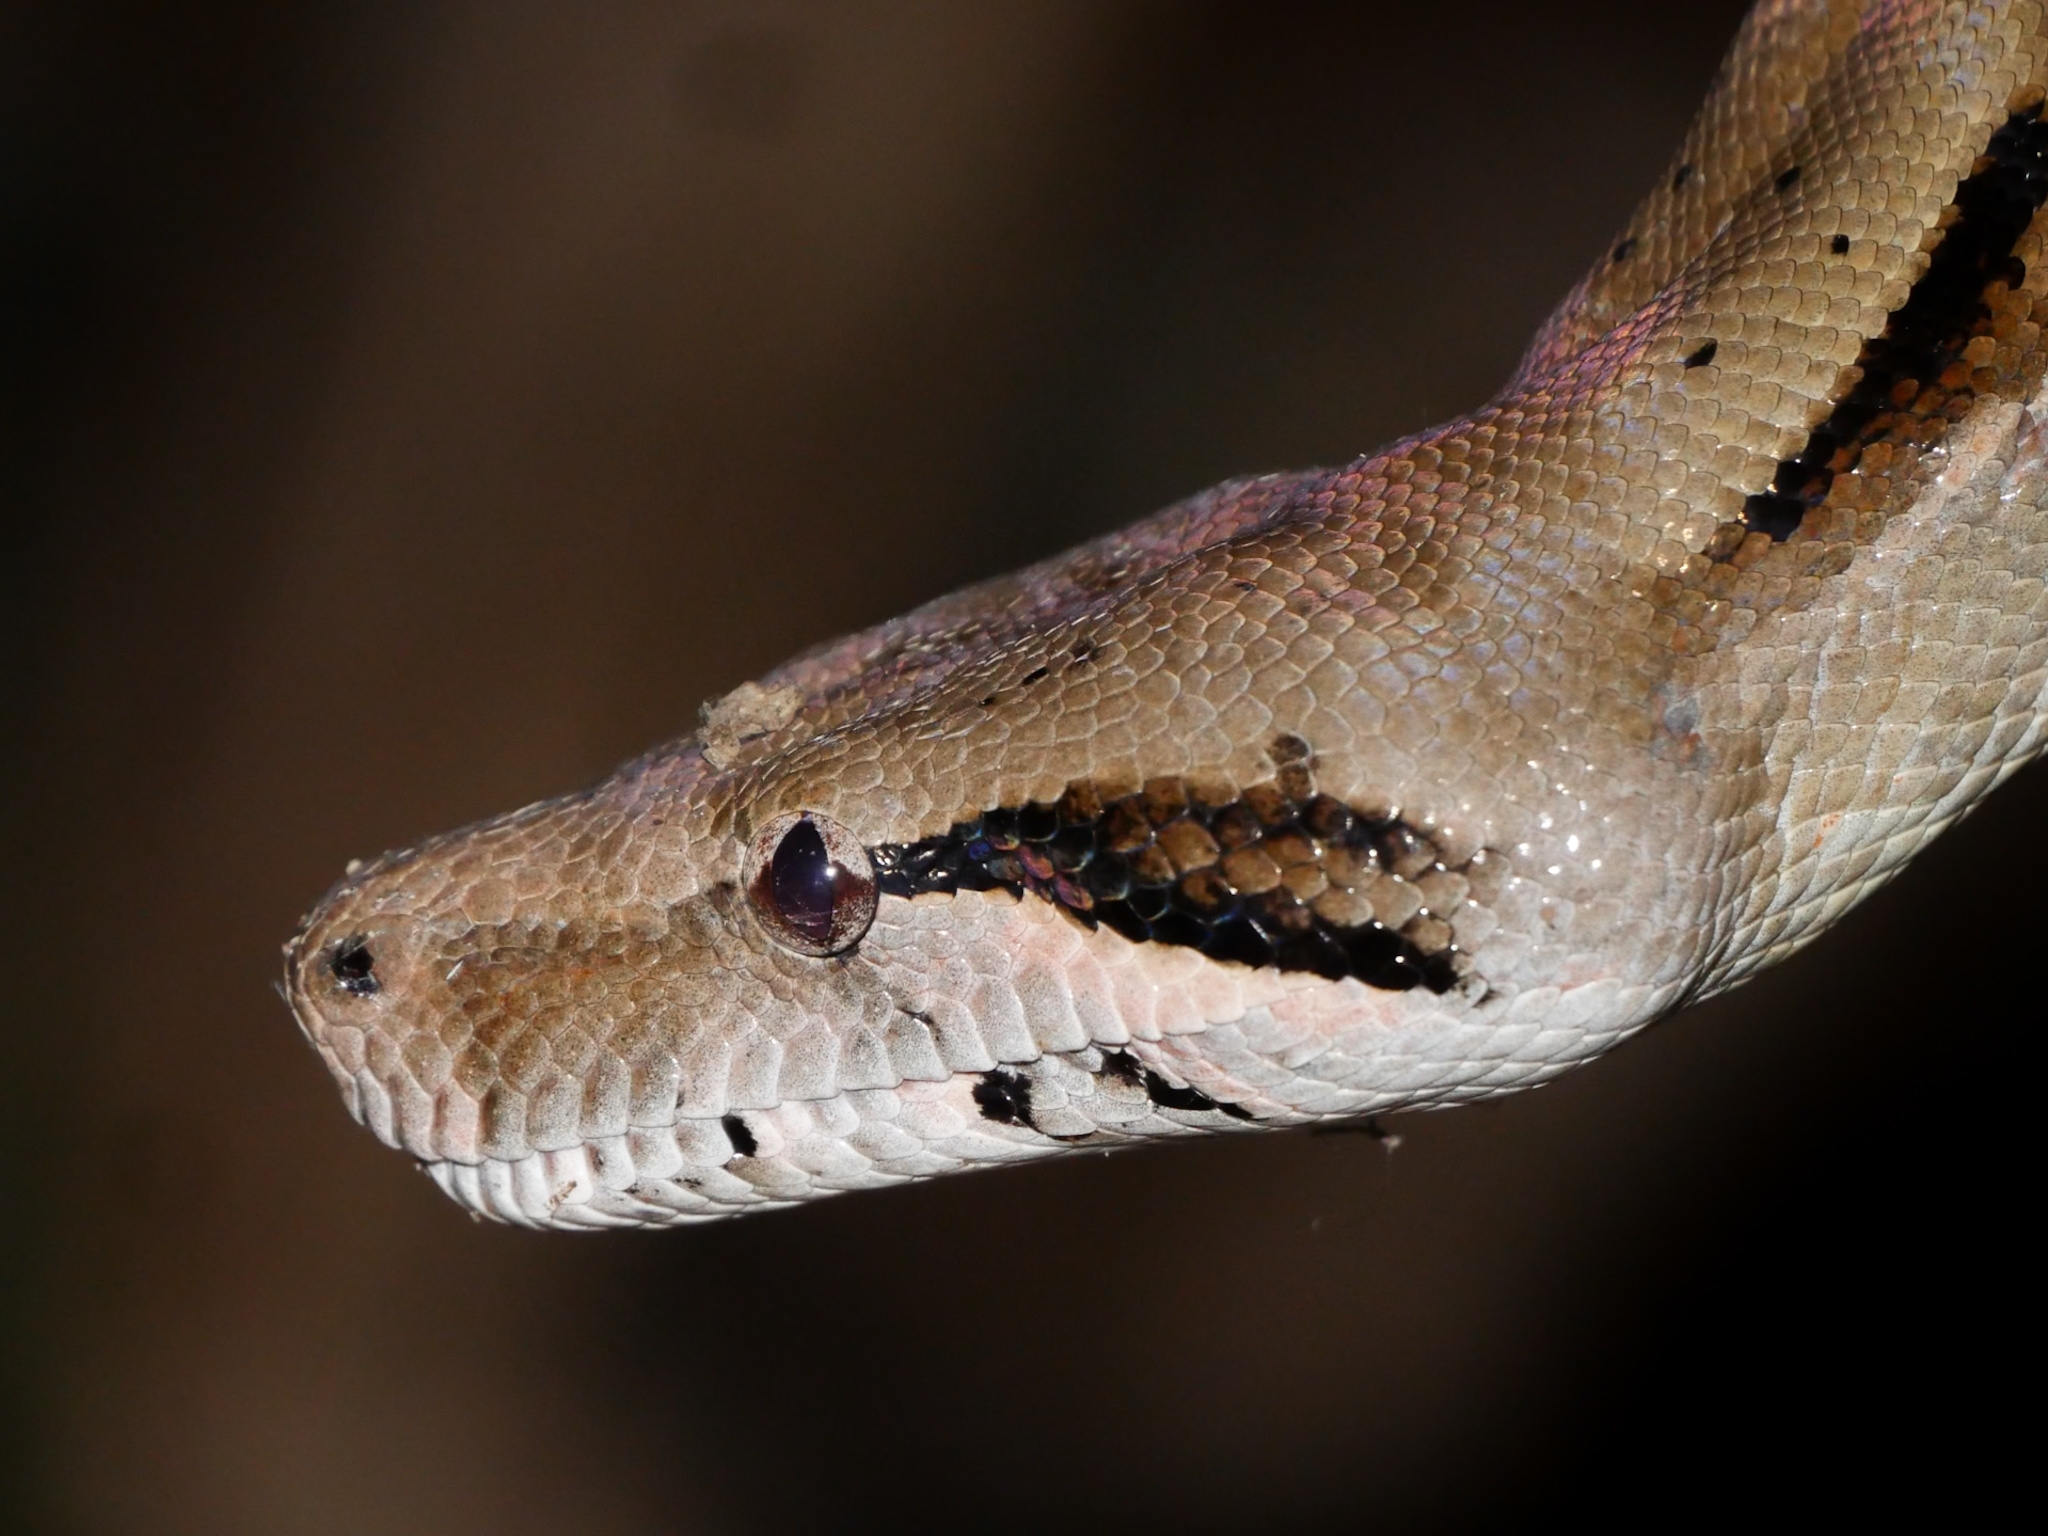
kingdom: Animalia
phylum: Chordata
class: Squamata
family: Boidae
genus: Boa
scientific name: Boa imperator
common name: Central american boa
